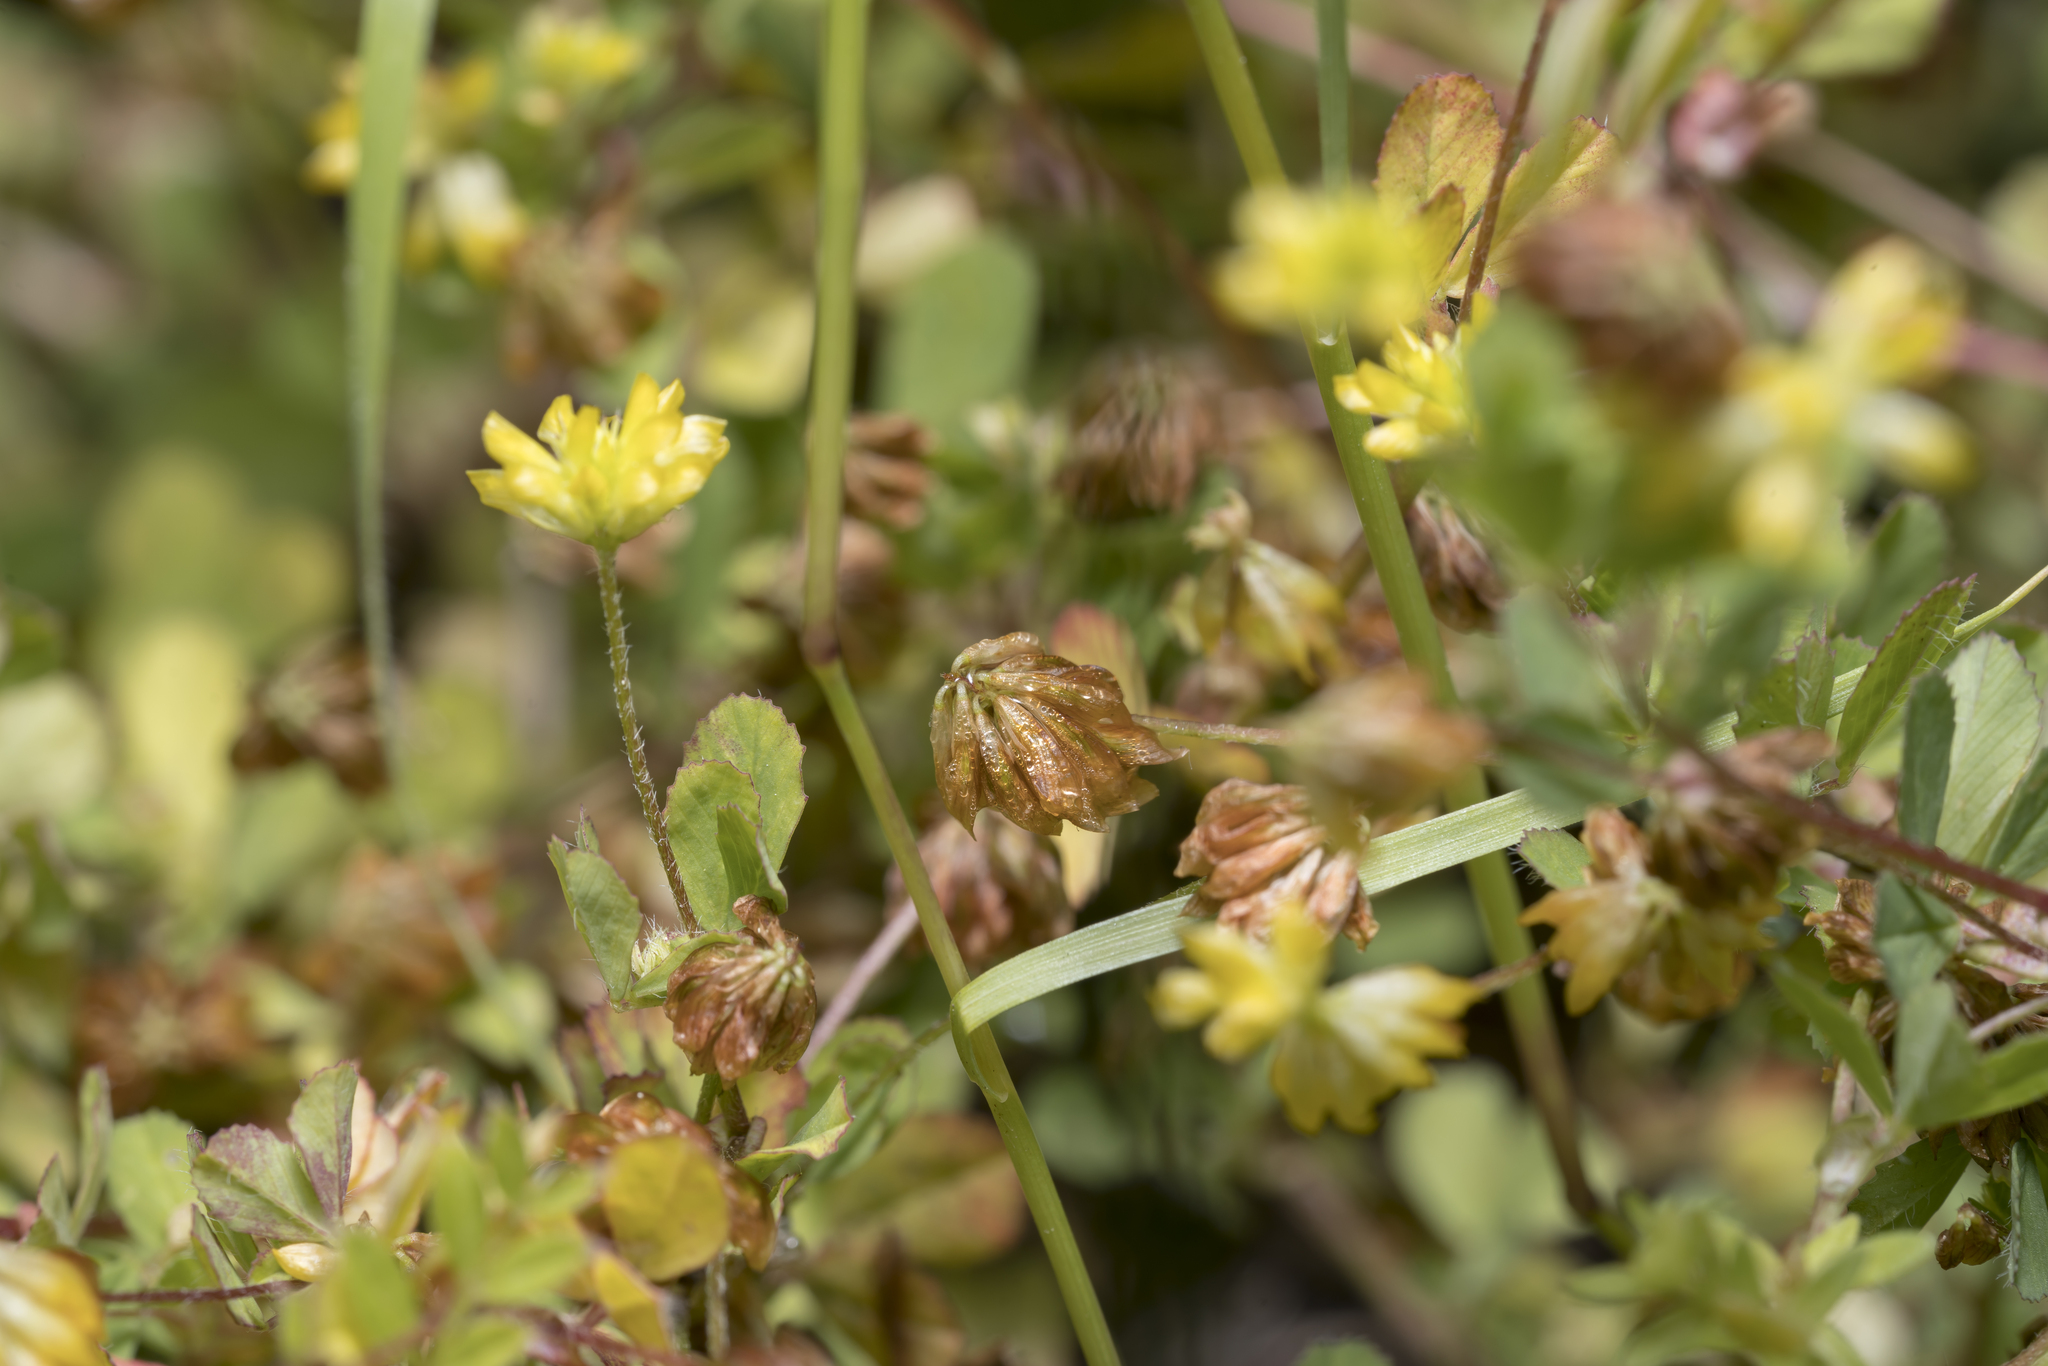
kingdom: Plantae
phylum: Tracheophyta
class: Magnoliopsida
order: Fabales
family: Fabaceae
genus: Trifolium
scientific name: Trifolium dubium
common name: Suckling clover
